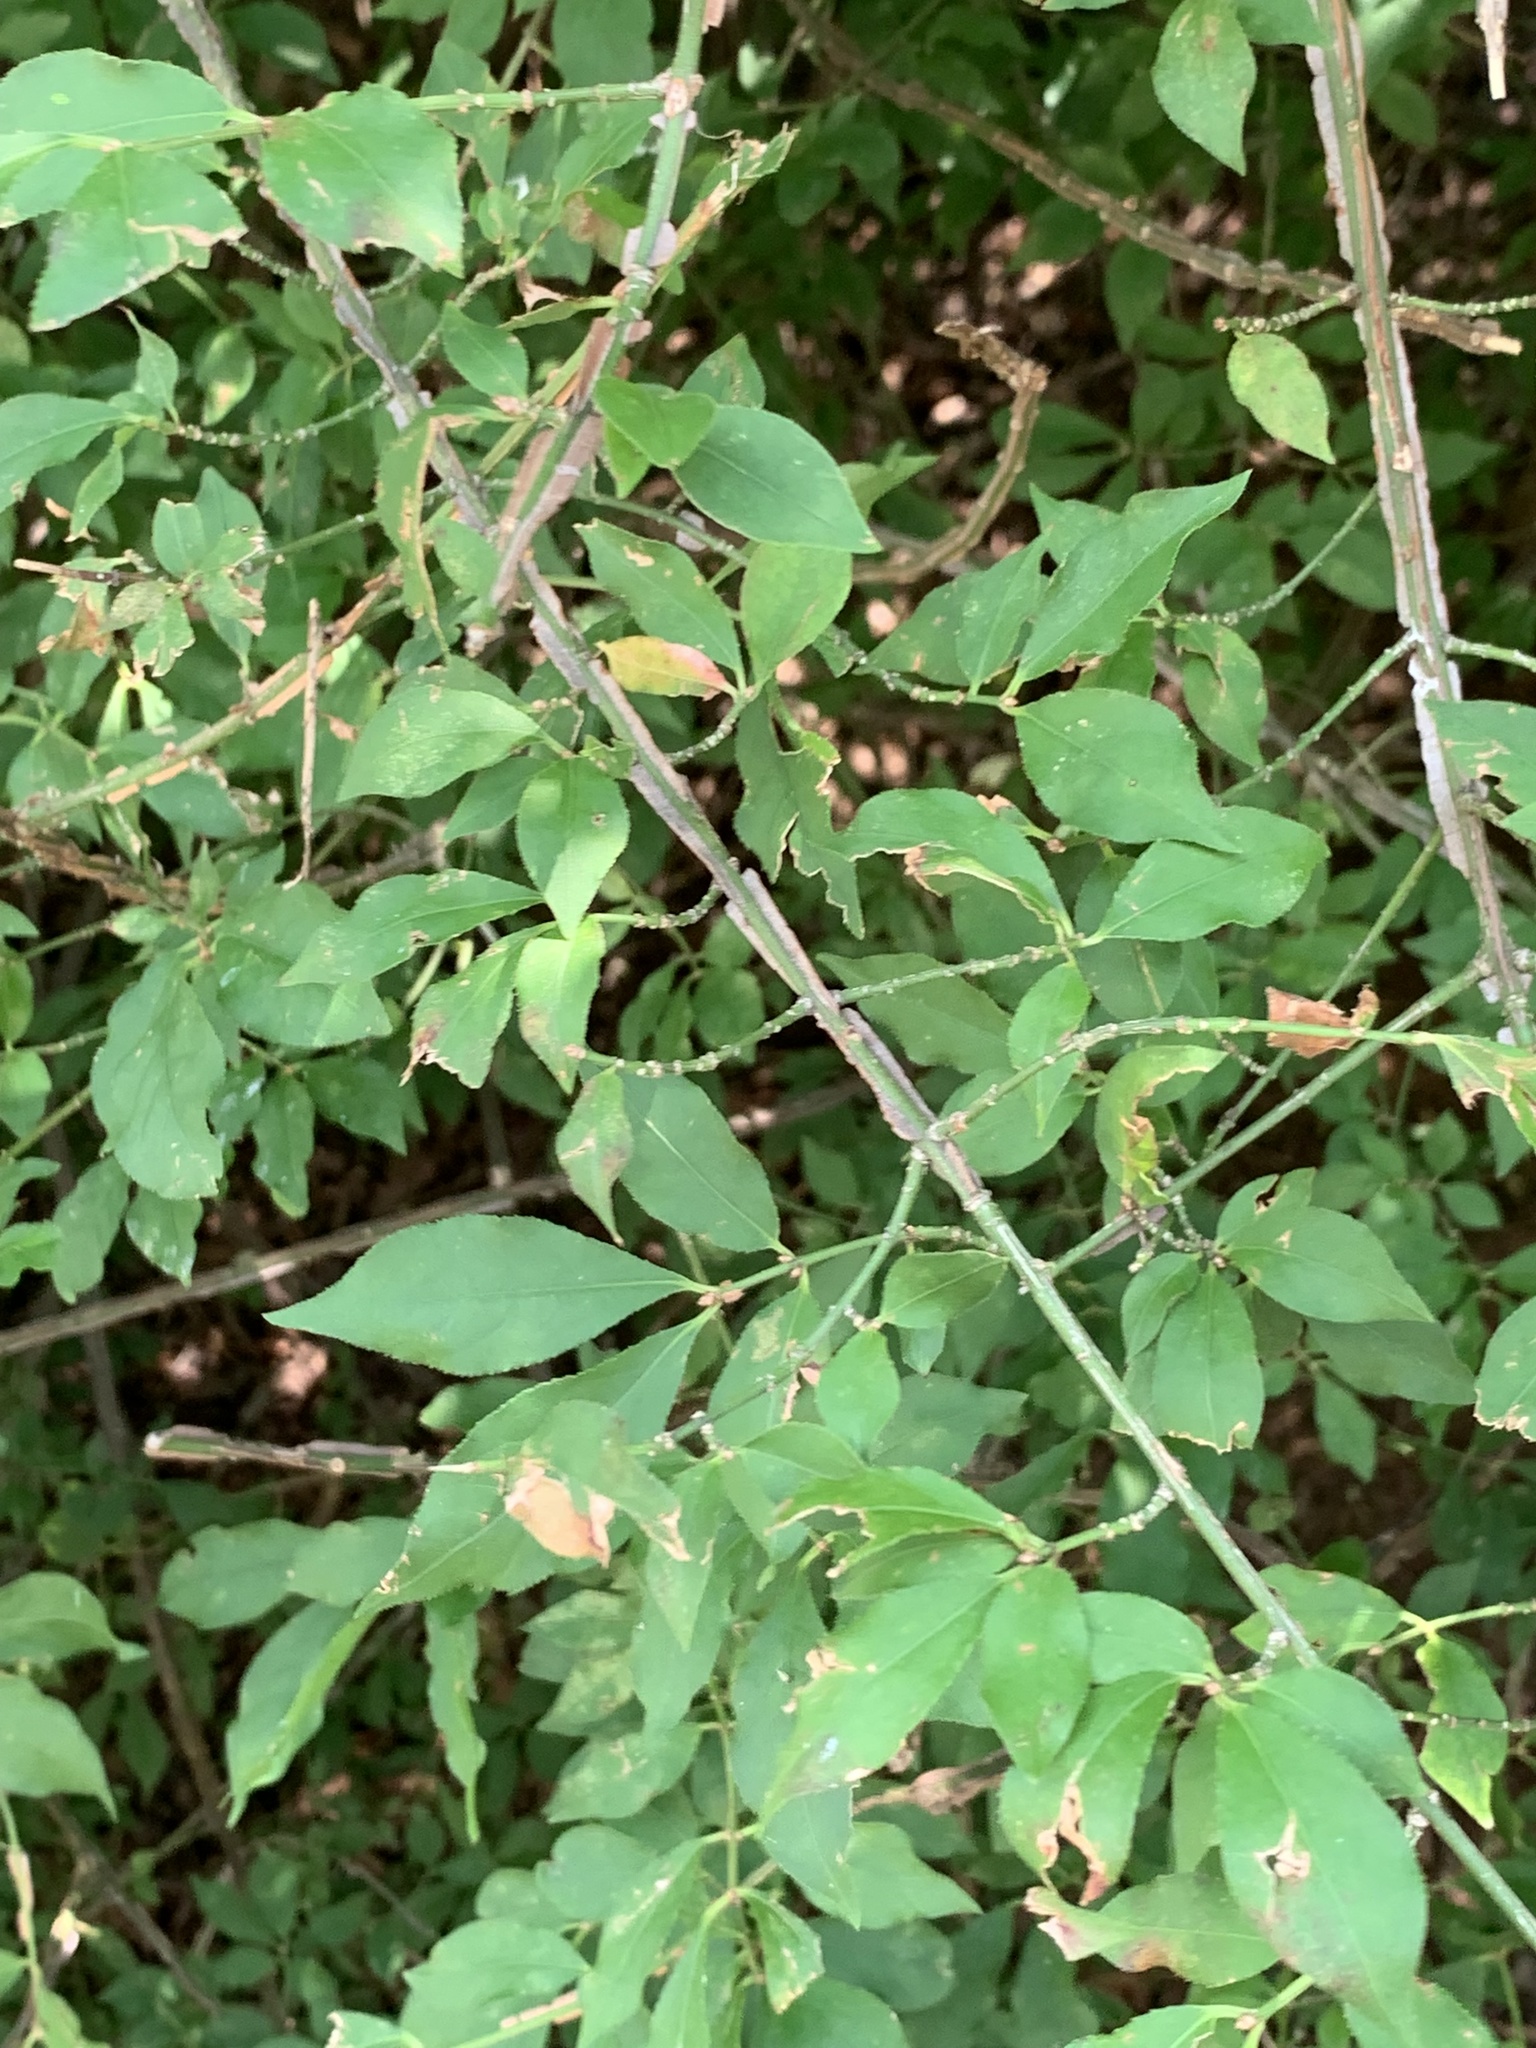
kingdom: Plantae
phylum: Tracheophyta
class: Magnoliopsida
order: Celastrales
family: Celastraceae
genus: Euonymus
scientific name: Euonymus alatus
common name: Winged euonymus
